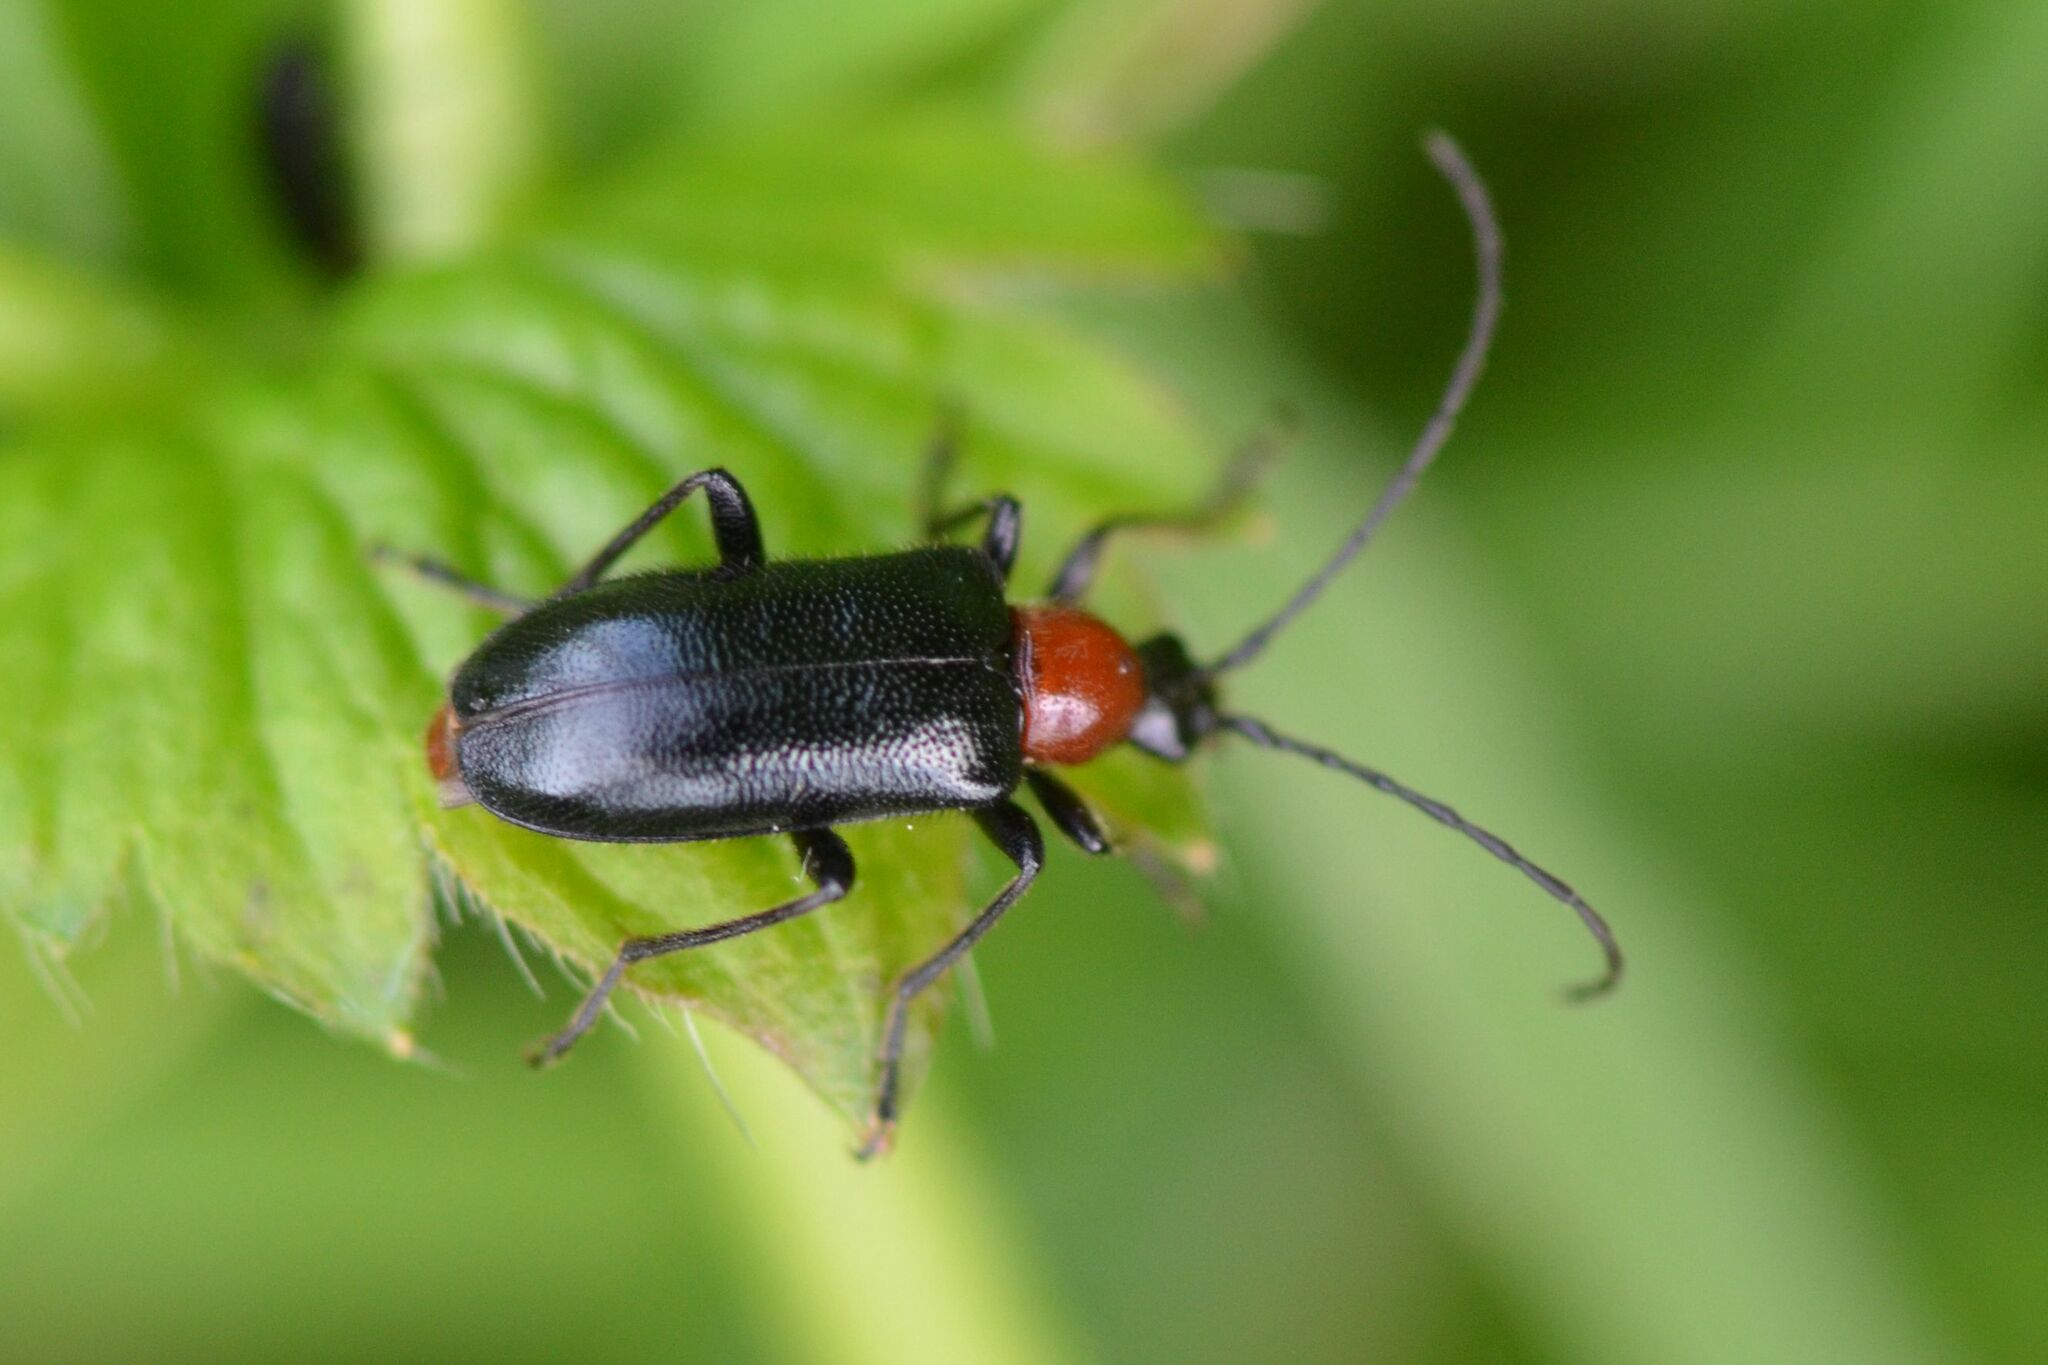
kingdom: Animalia
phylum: Arthropoda
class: Insecta
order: Coleoptera
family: Cerambycidae
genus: Dinoptera
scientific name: Dinoptera collaris
